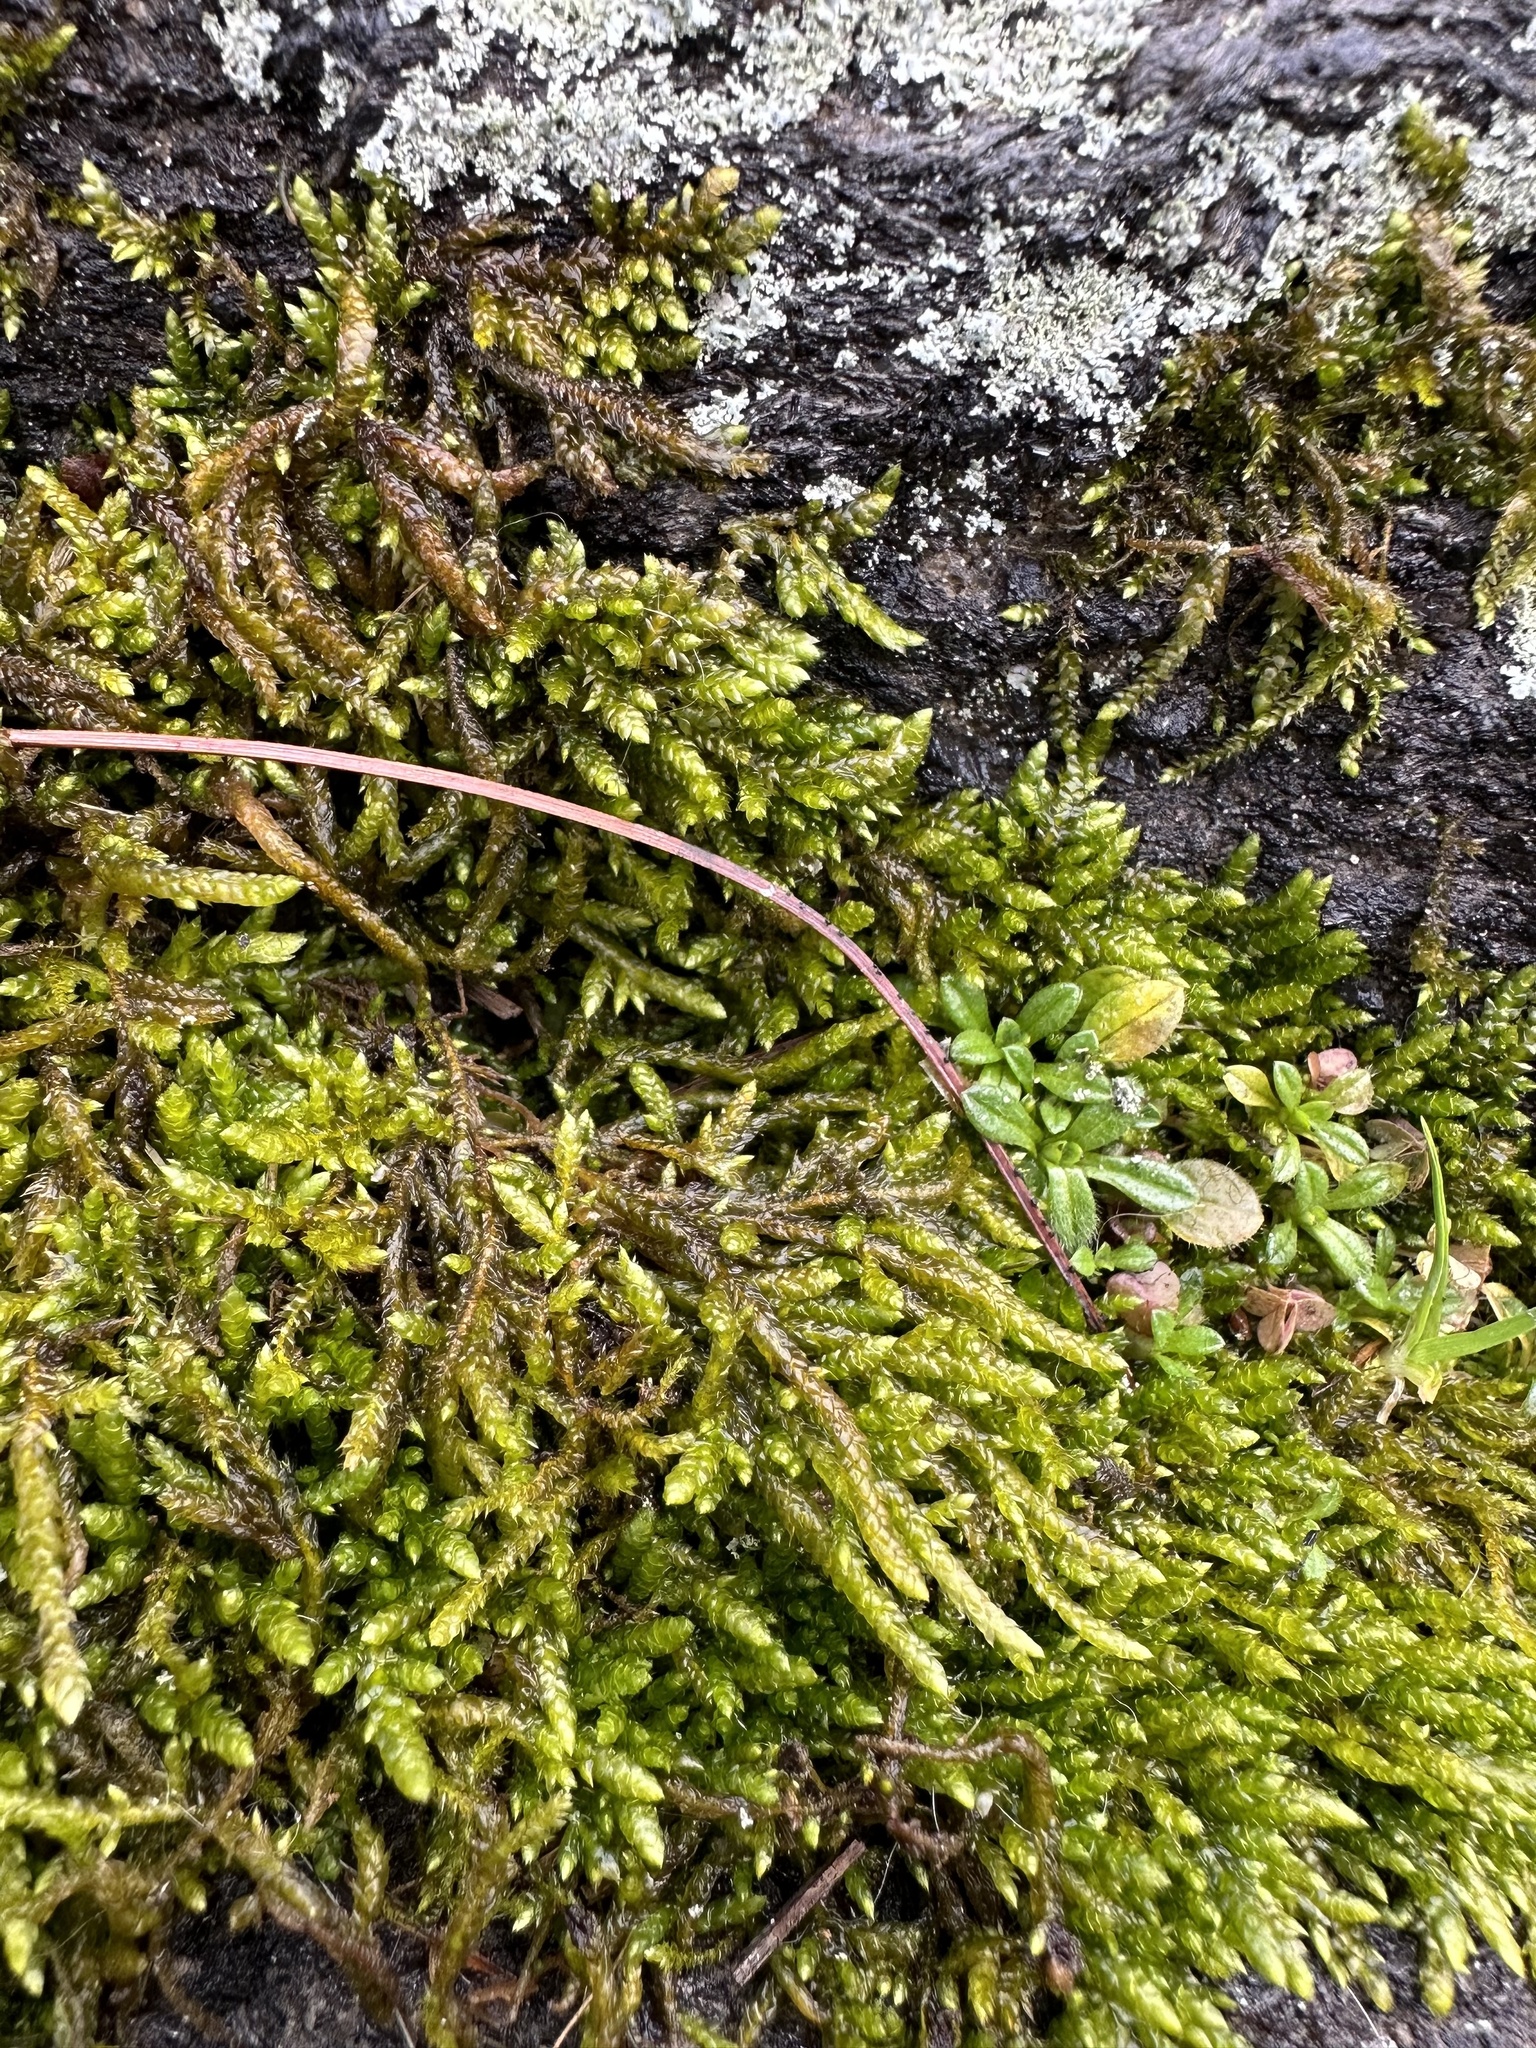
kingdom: Plantae
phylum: Bryophyta
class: Bryopsida
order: Hypnales
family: Entodontaceae
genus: Entodon
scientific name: Entodon seductrix
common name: Round-stemmed entodon moss
